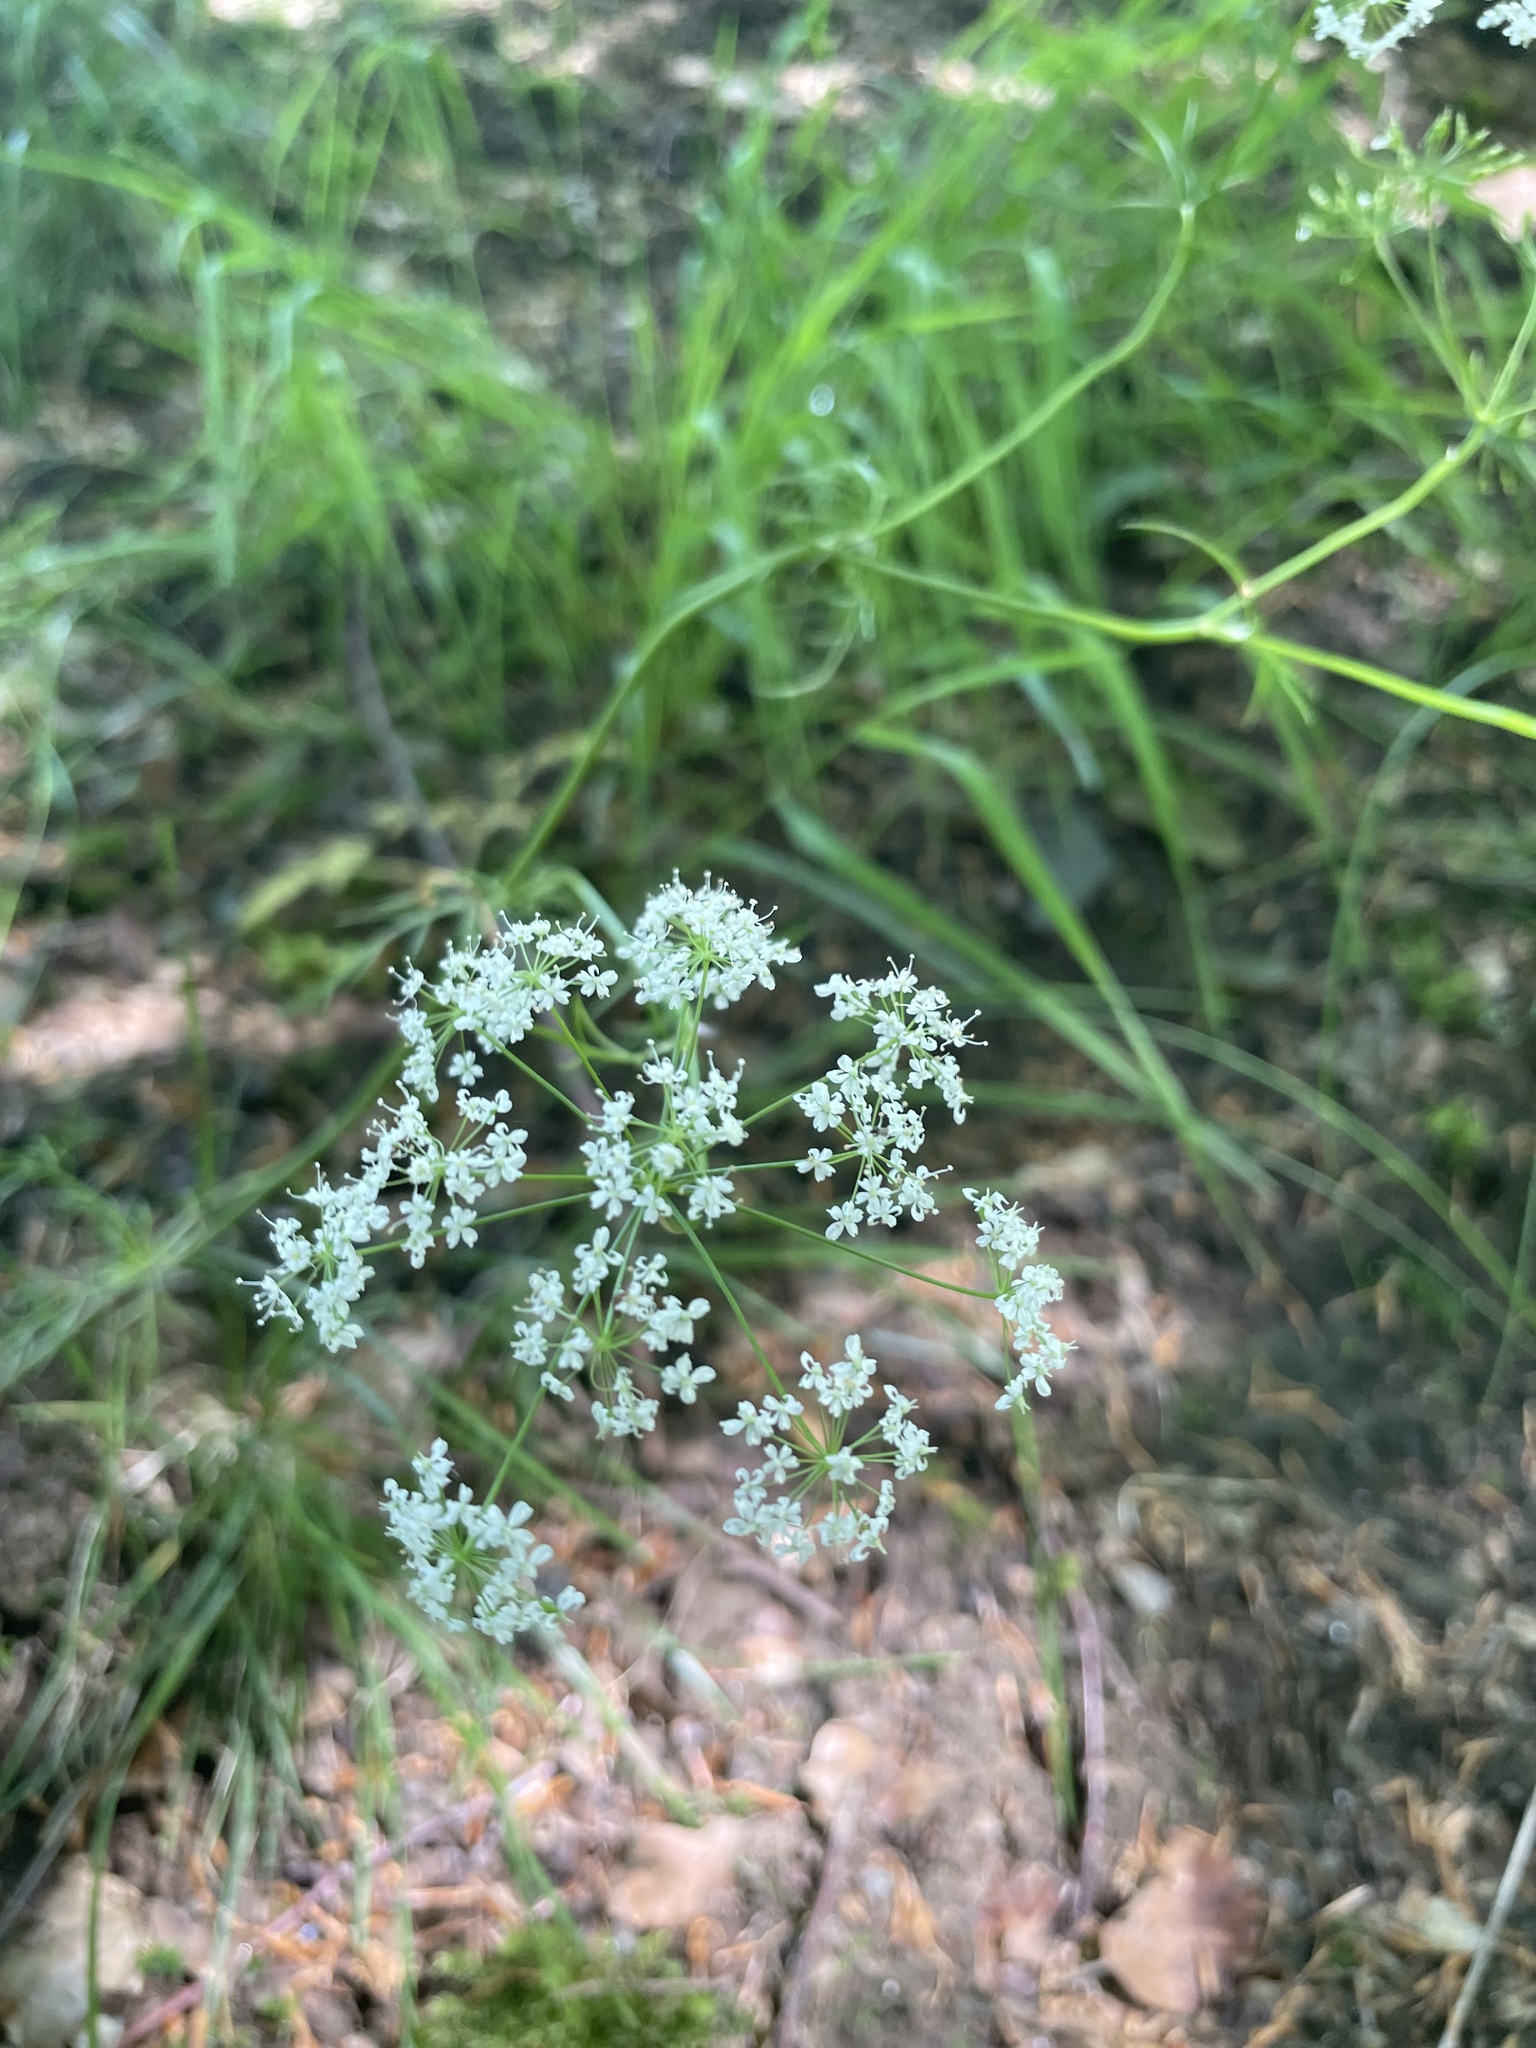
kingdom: Plantae
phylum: Tracheophyta
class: Magnoliopsida
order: Apiales
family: Apiaceae
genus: Conopodium
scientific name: Conopodium majus
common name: Pignut
